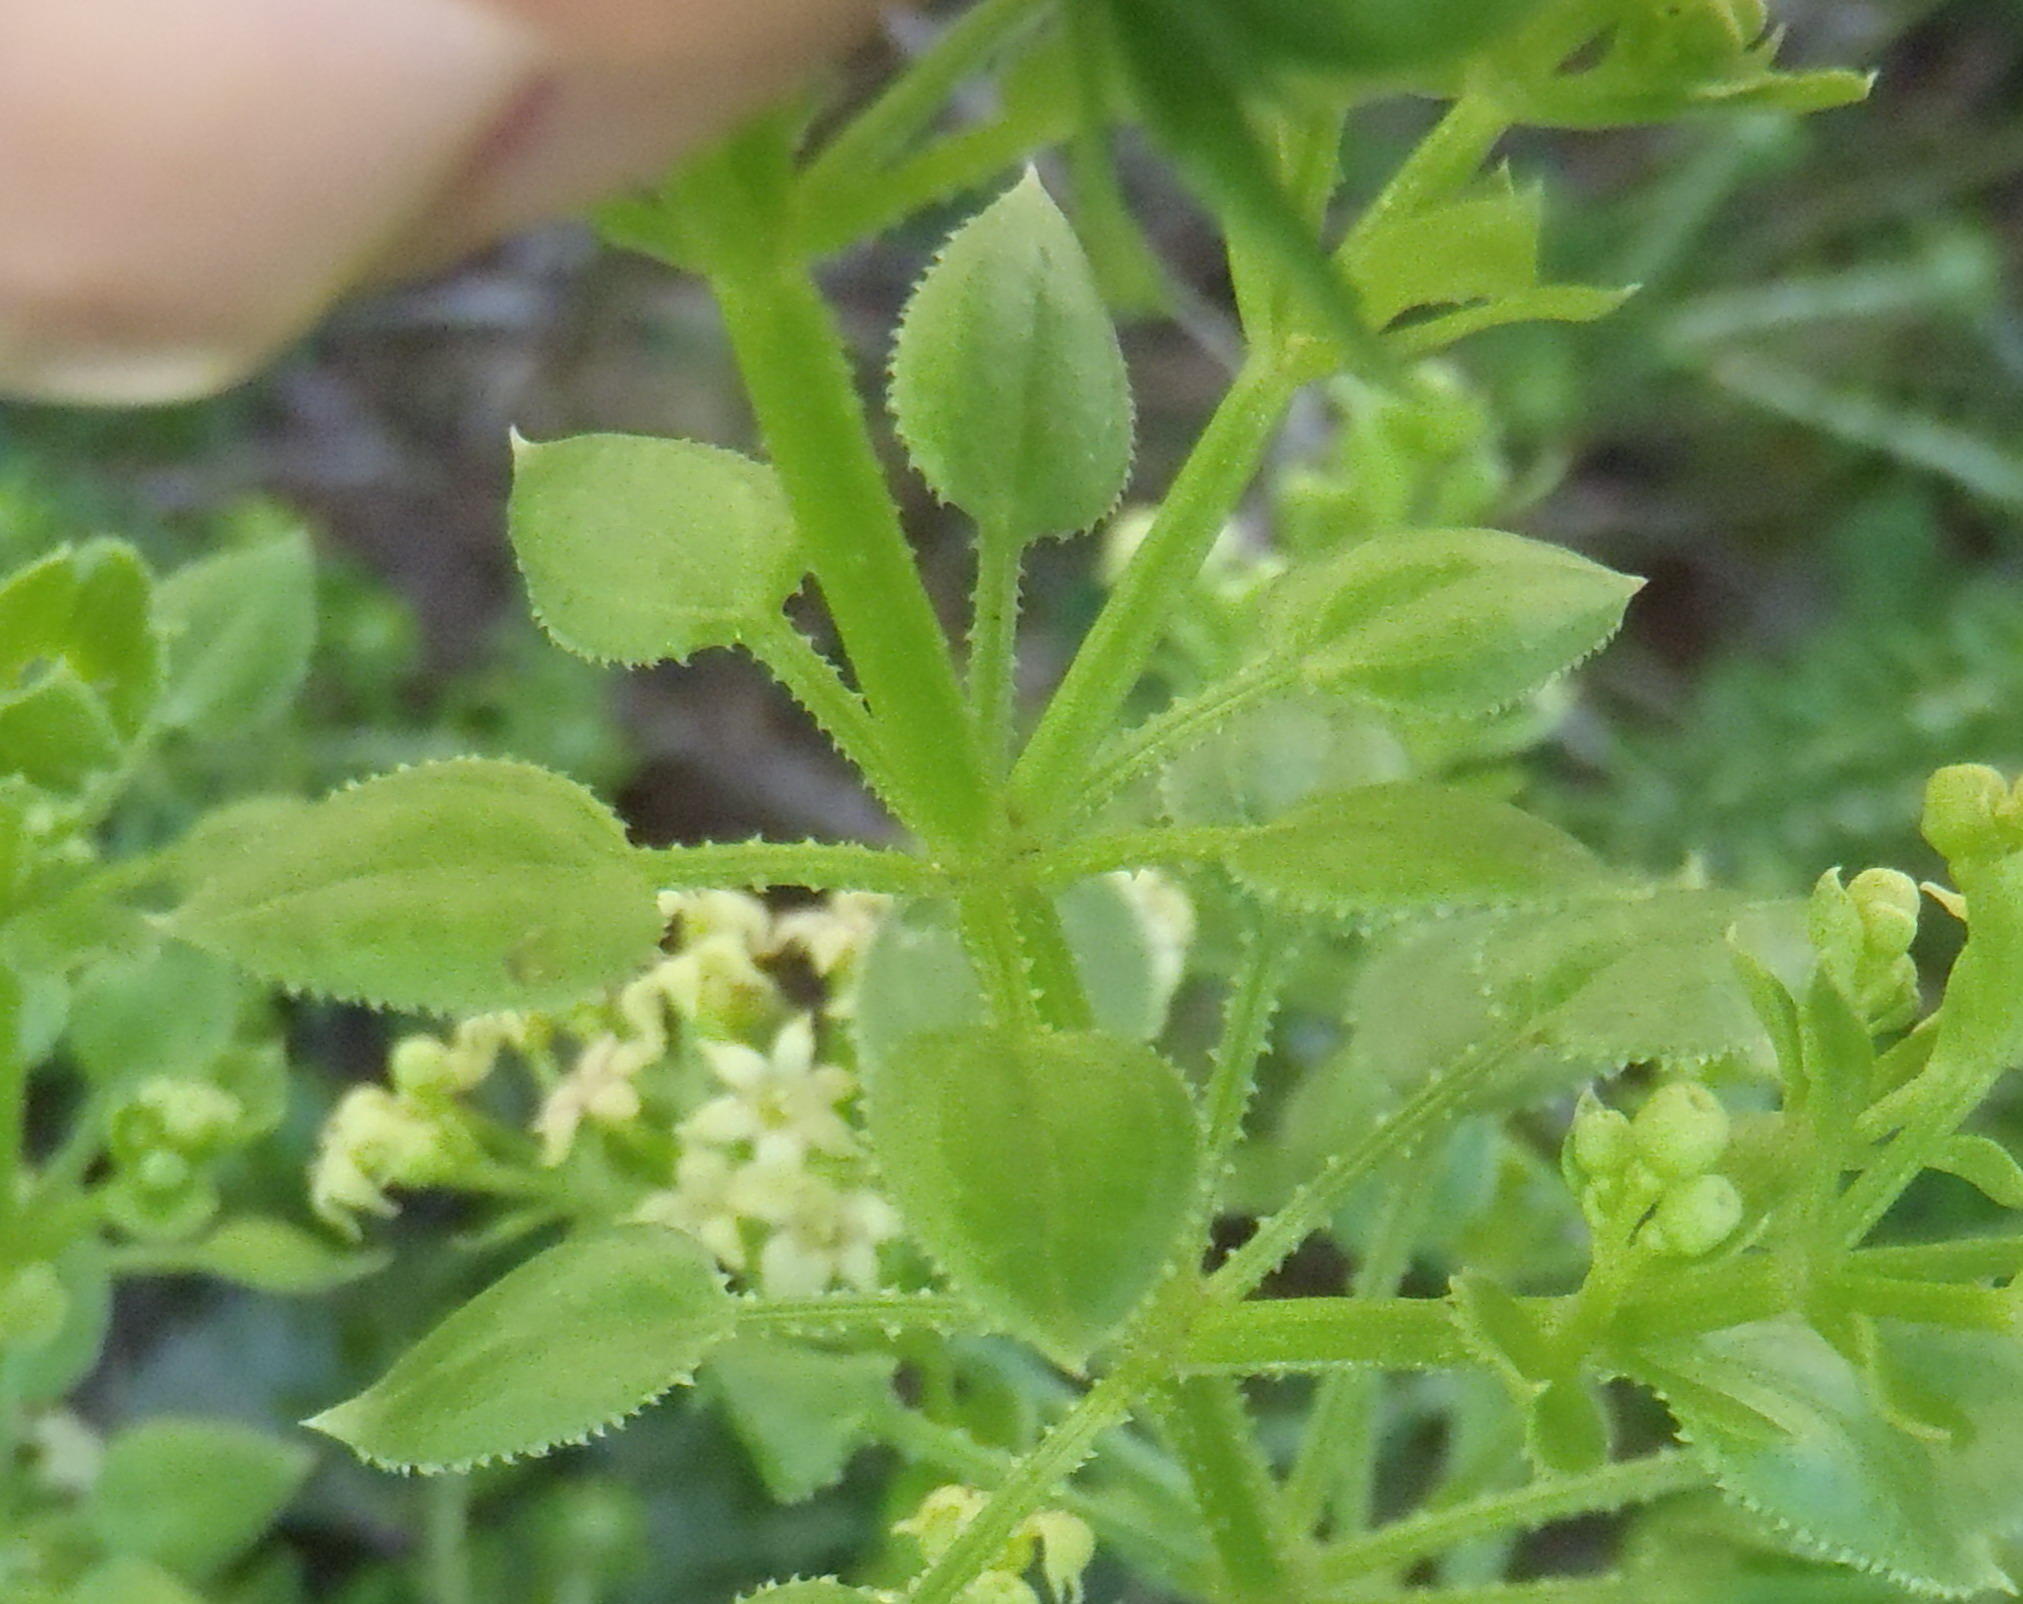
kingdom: Plantae
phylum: Tracheophyta
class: Magnoliopsida
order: Gentianales
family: Rubiaceae
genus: Rubia
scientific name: Rubia petiolaris
